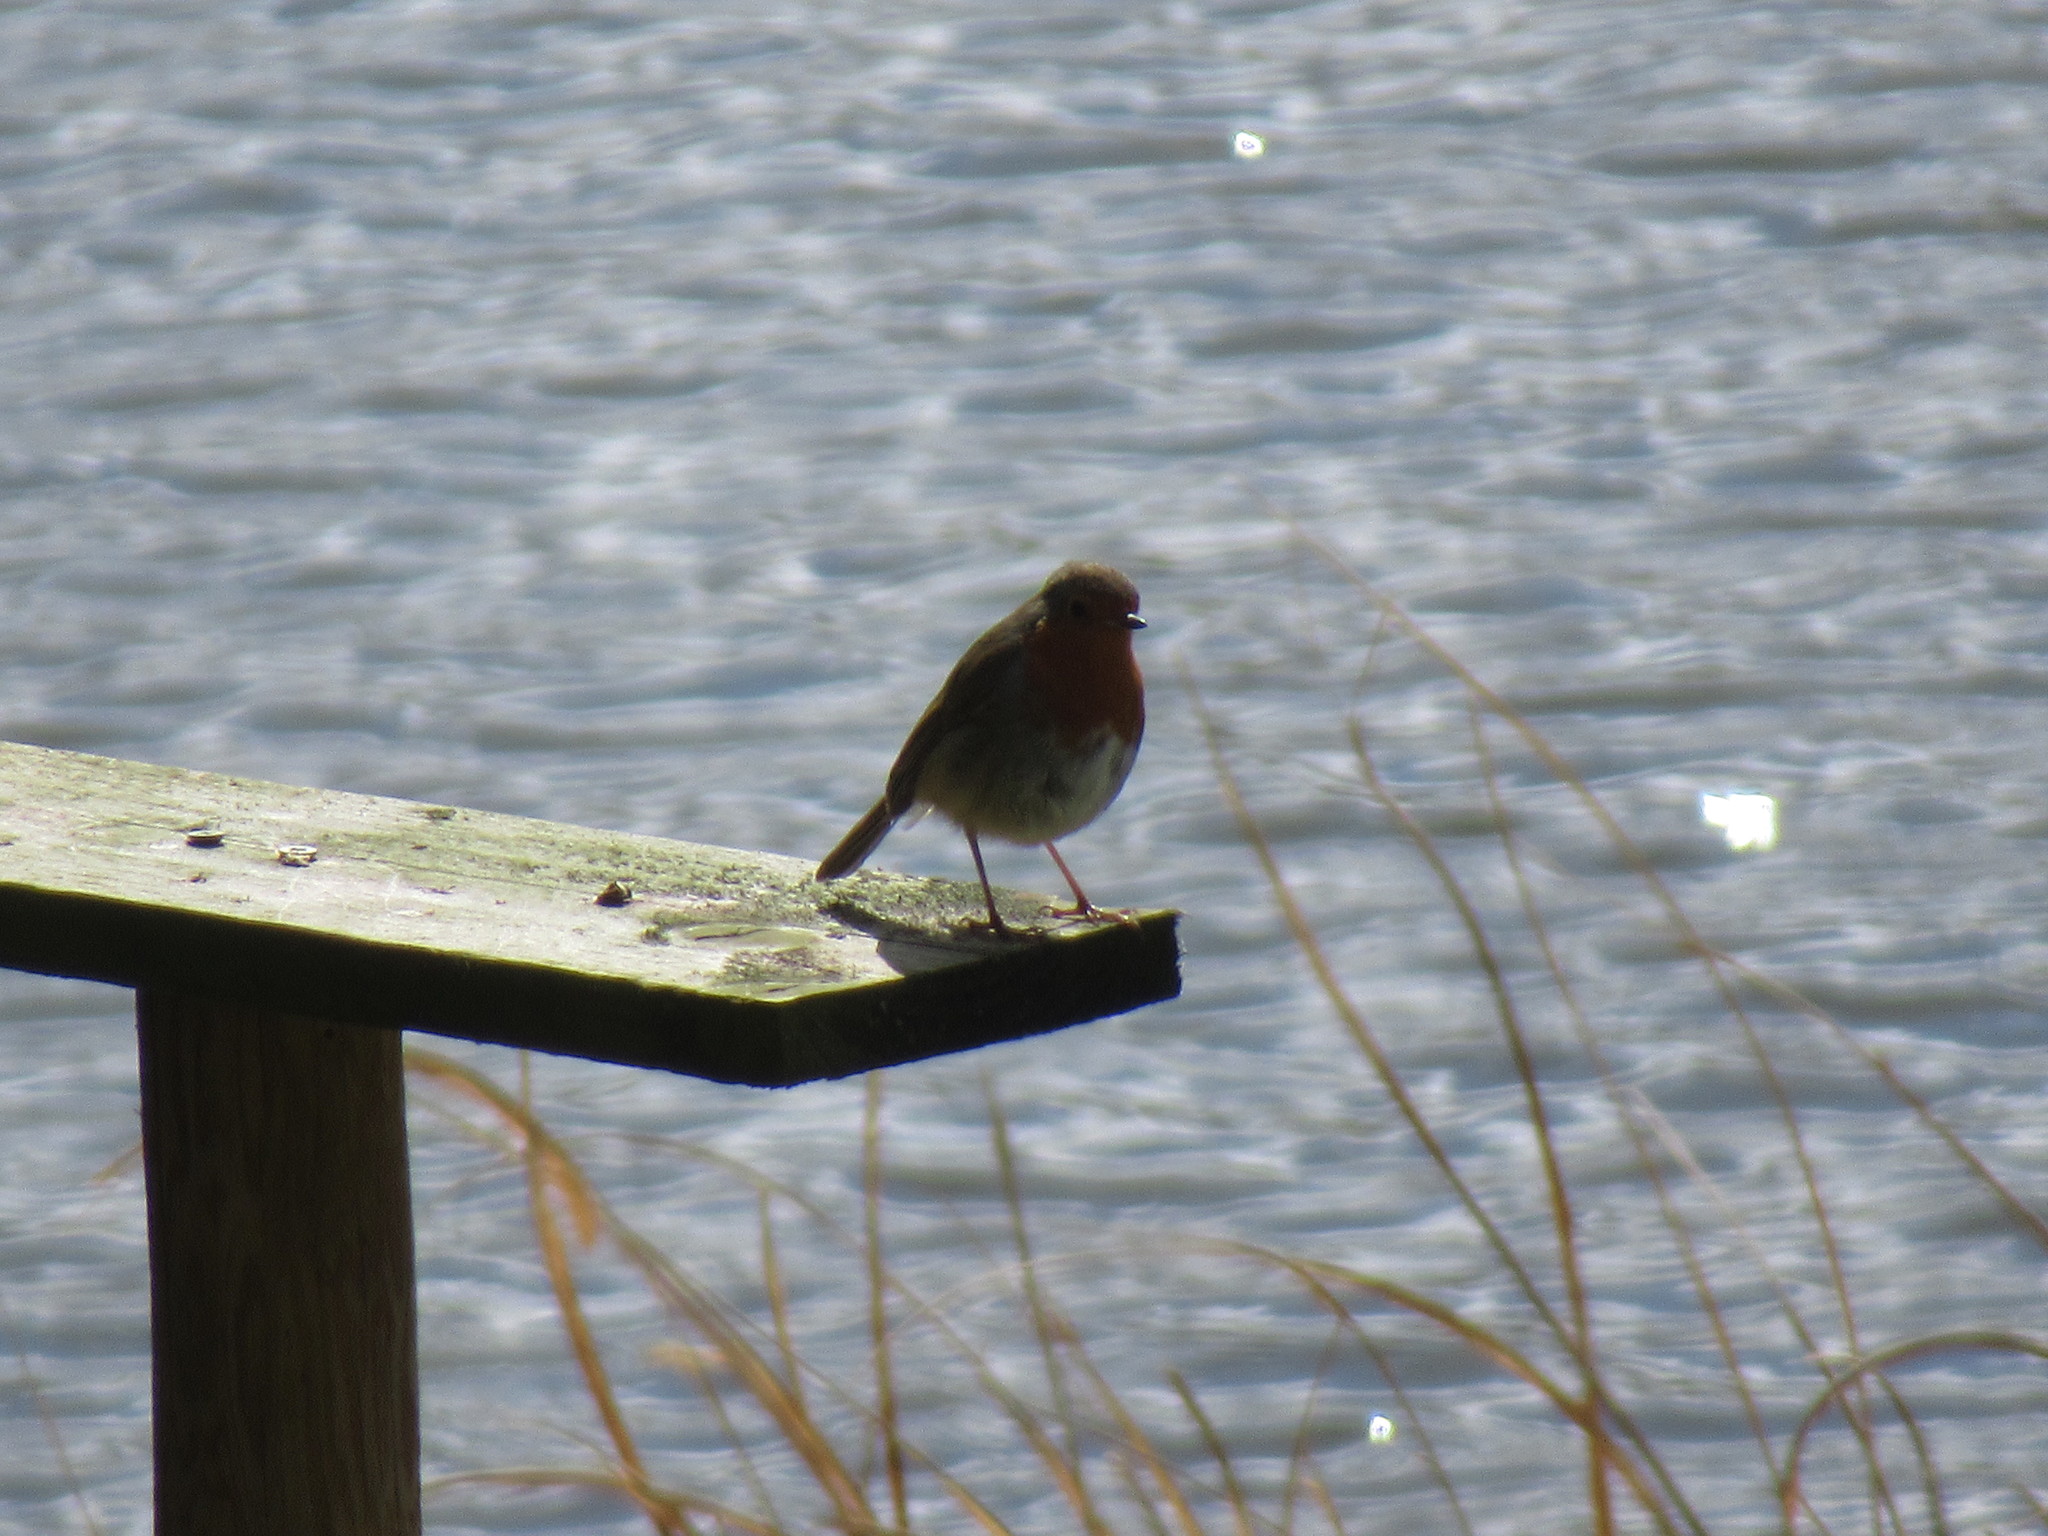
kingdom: Animalia
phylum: Chordata
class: Aves
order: Passeriformes
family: Muscicapidae
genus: Erithacus
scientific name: Erithacus rubecula
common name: European robin
